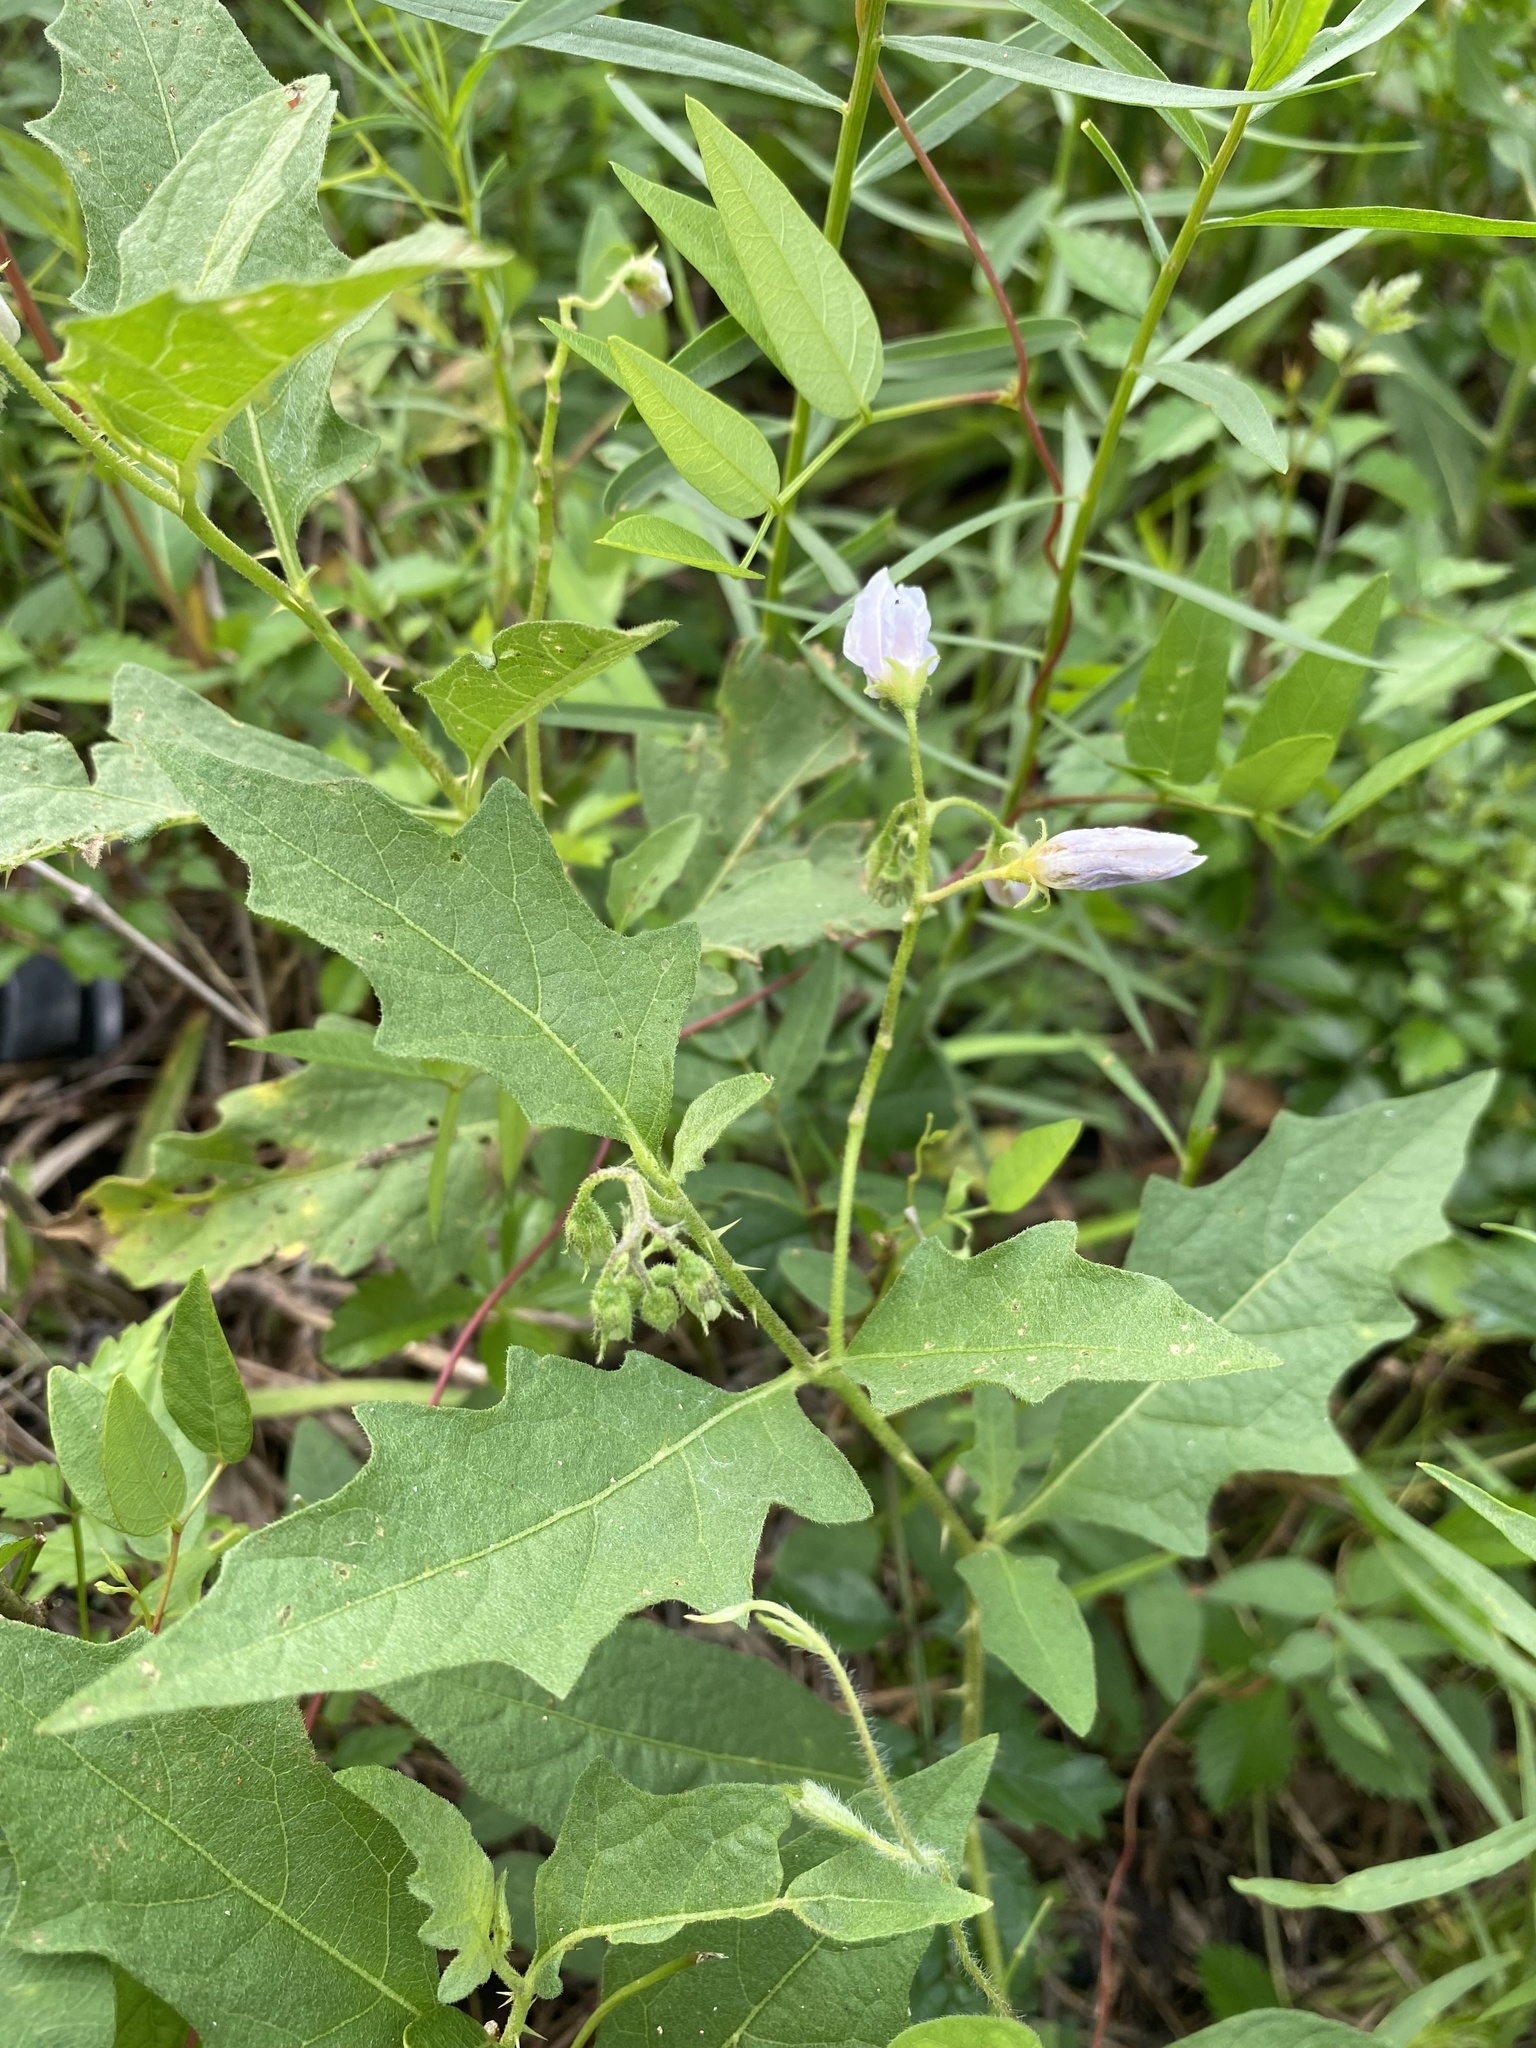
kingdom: Plantae
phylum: Tracheophyta
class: Magnoliopsida
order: Solanales
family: Solanaceae
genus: Solanum
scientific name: Solanum carolinense
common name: Horse-nettle
